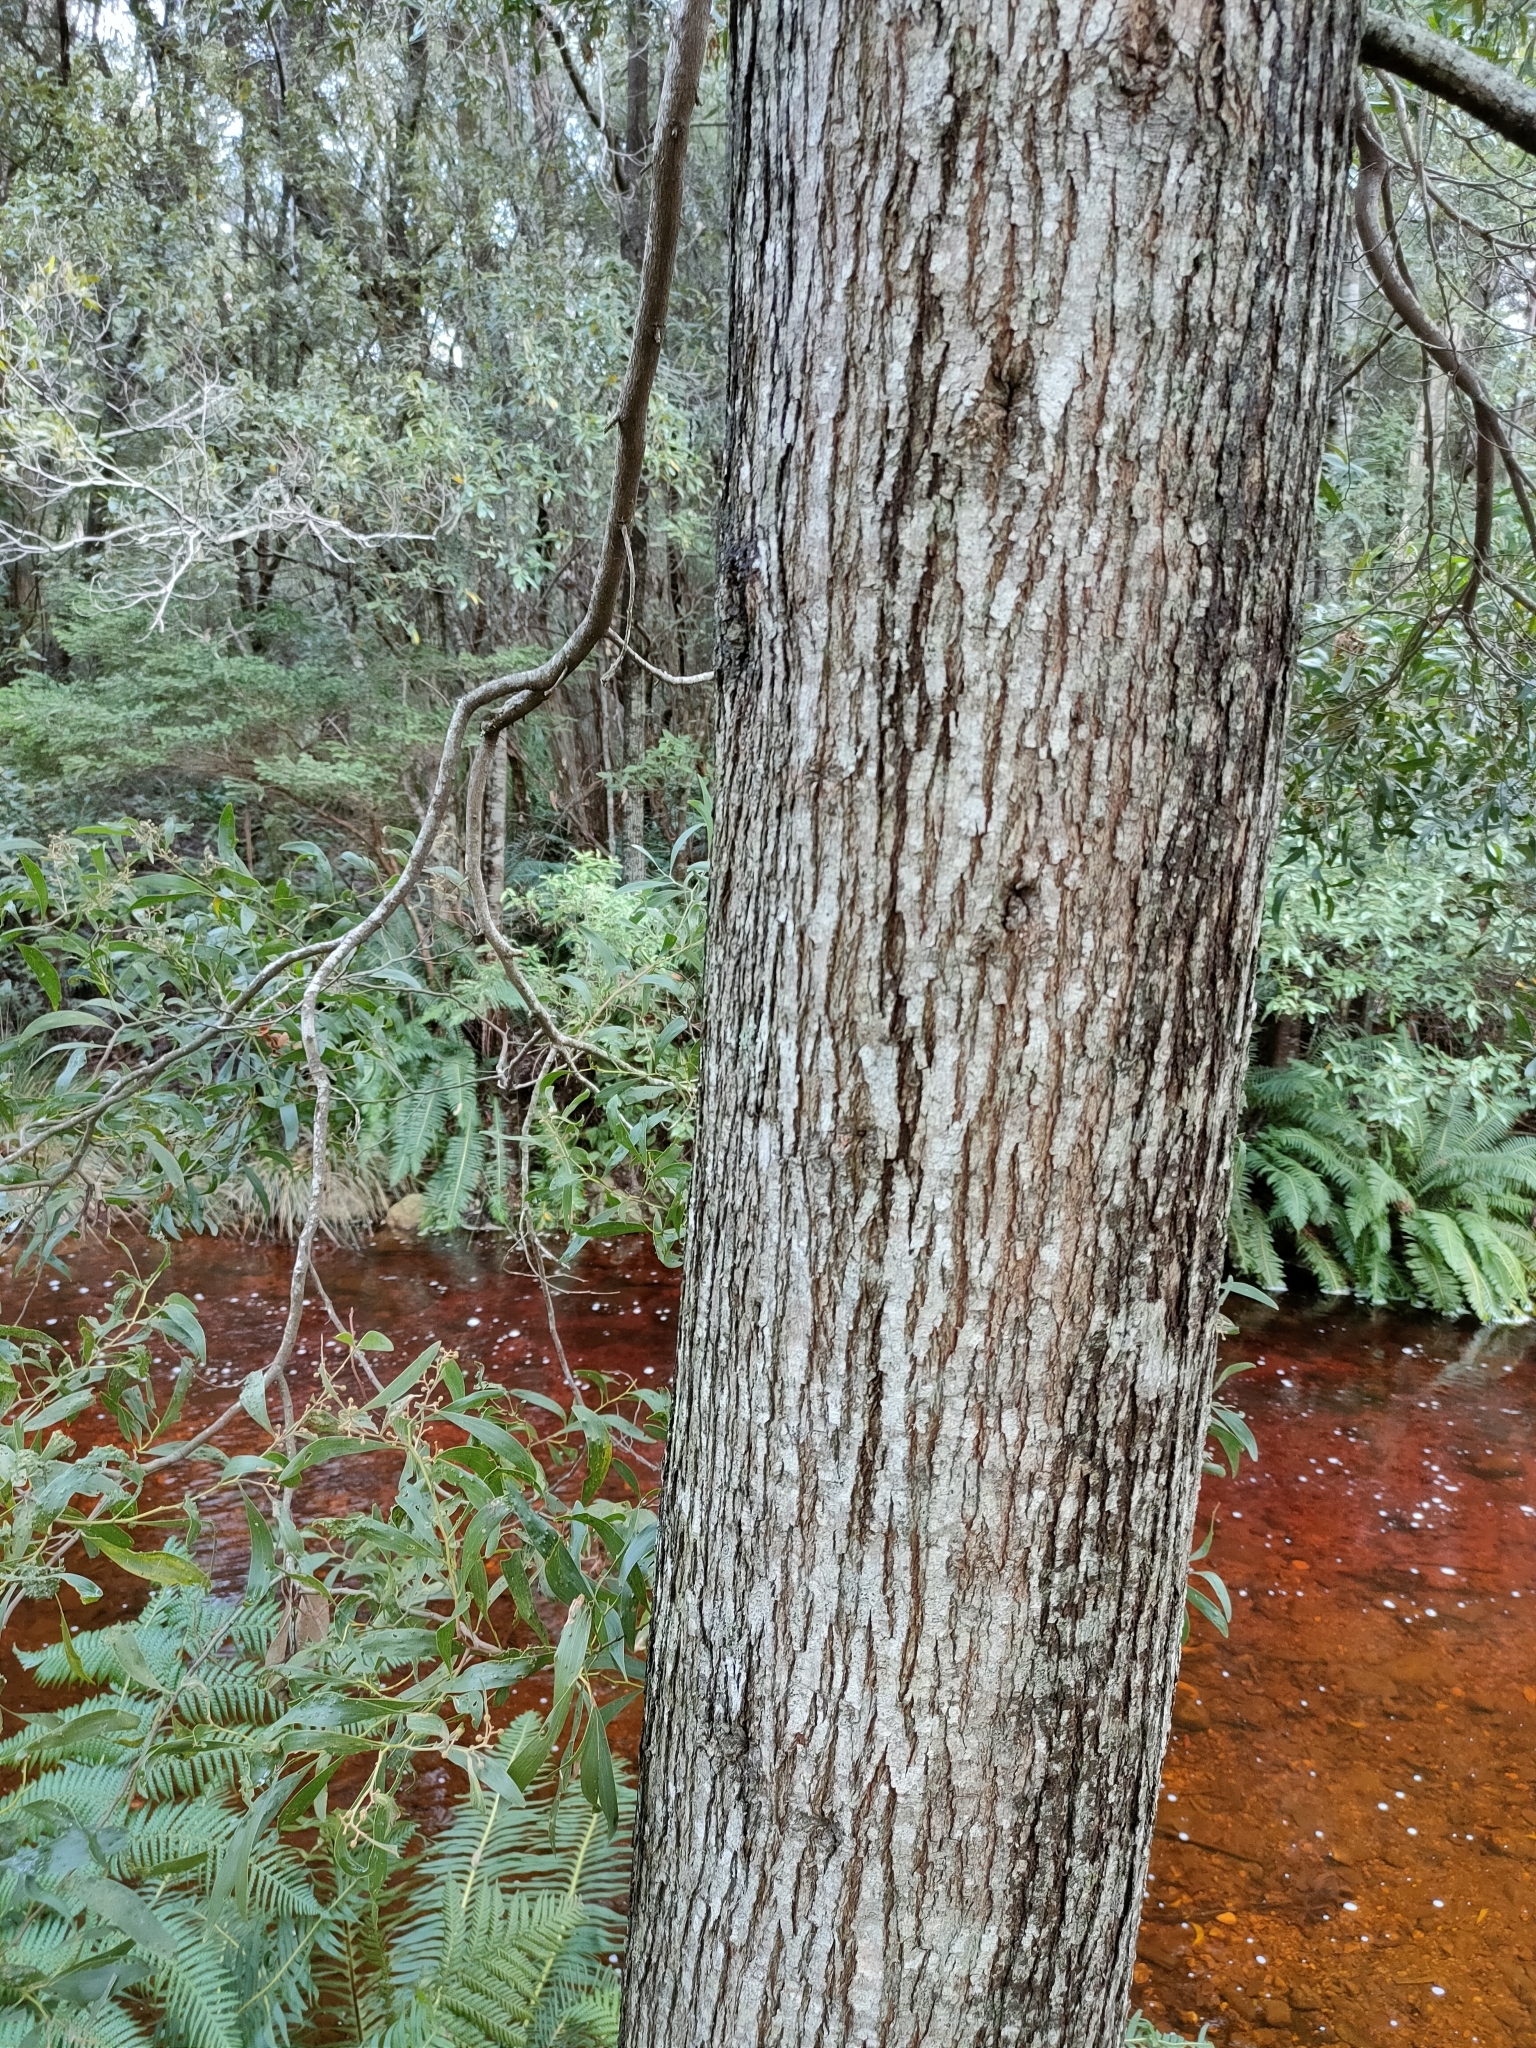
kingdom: Plantae
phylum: Tracheophyta
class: Magnoliopsida
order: Fabales
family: Fabaceae
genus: Acacia
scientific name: Acacia melanoxylon
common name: Blackwood
